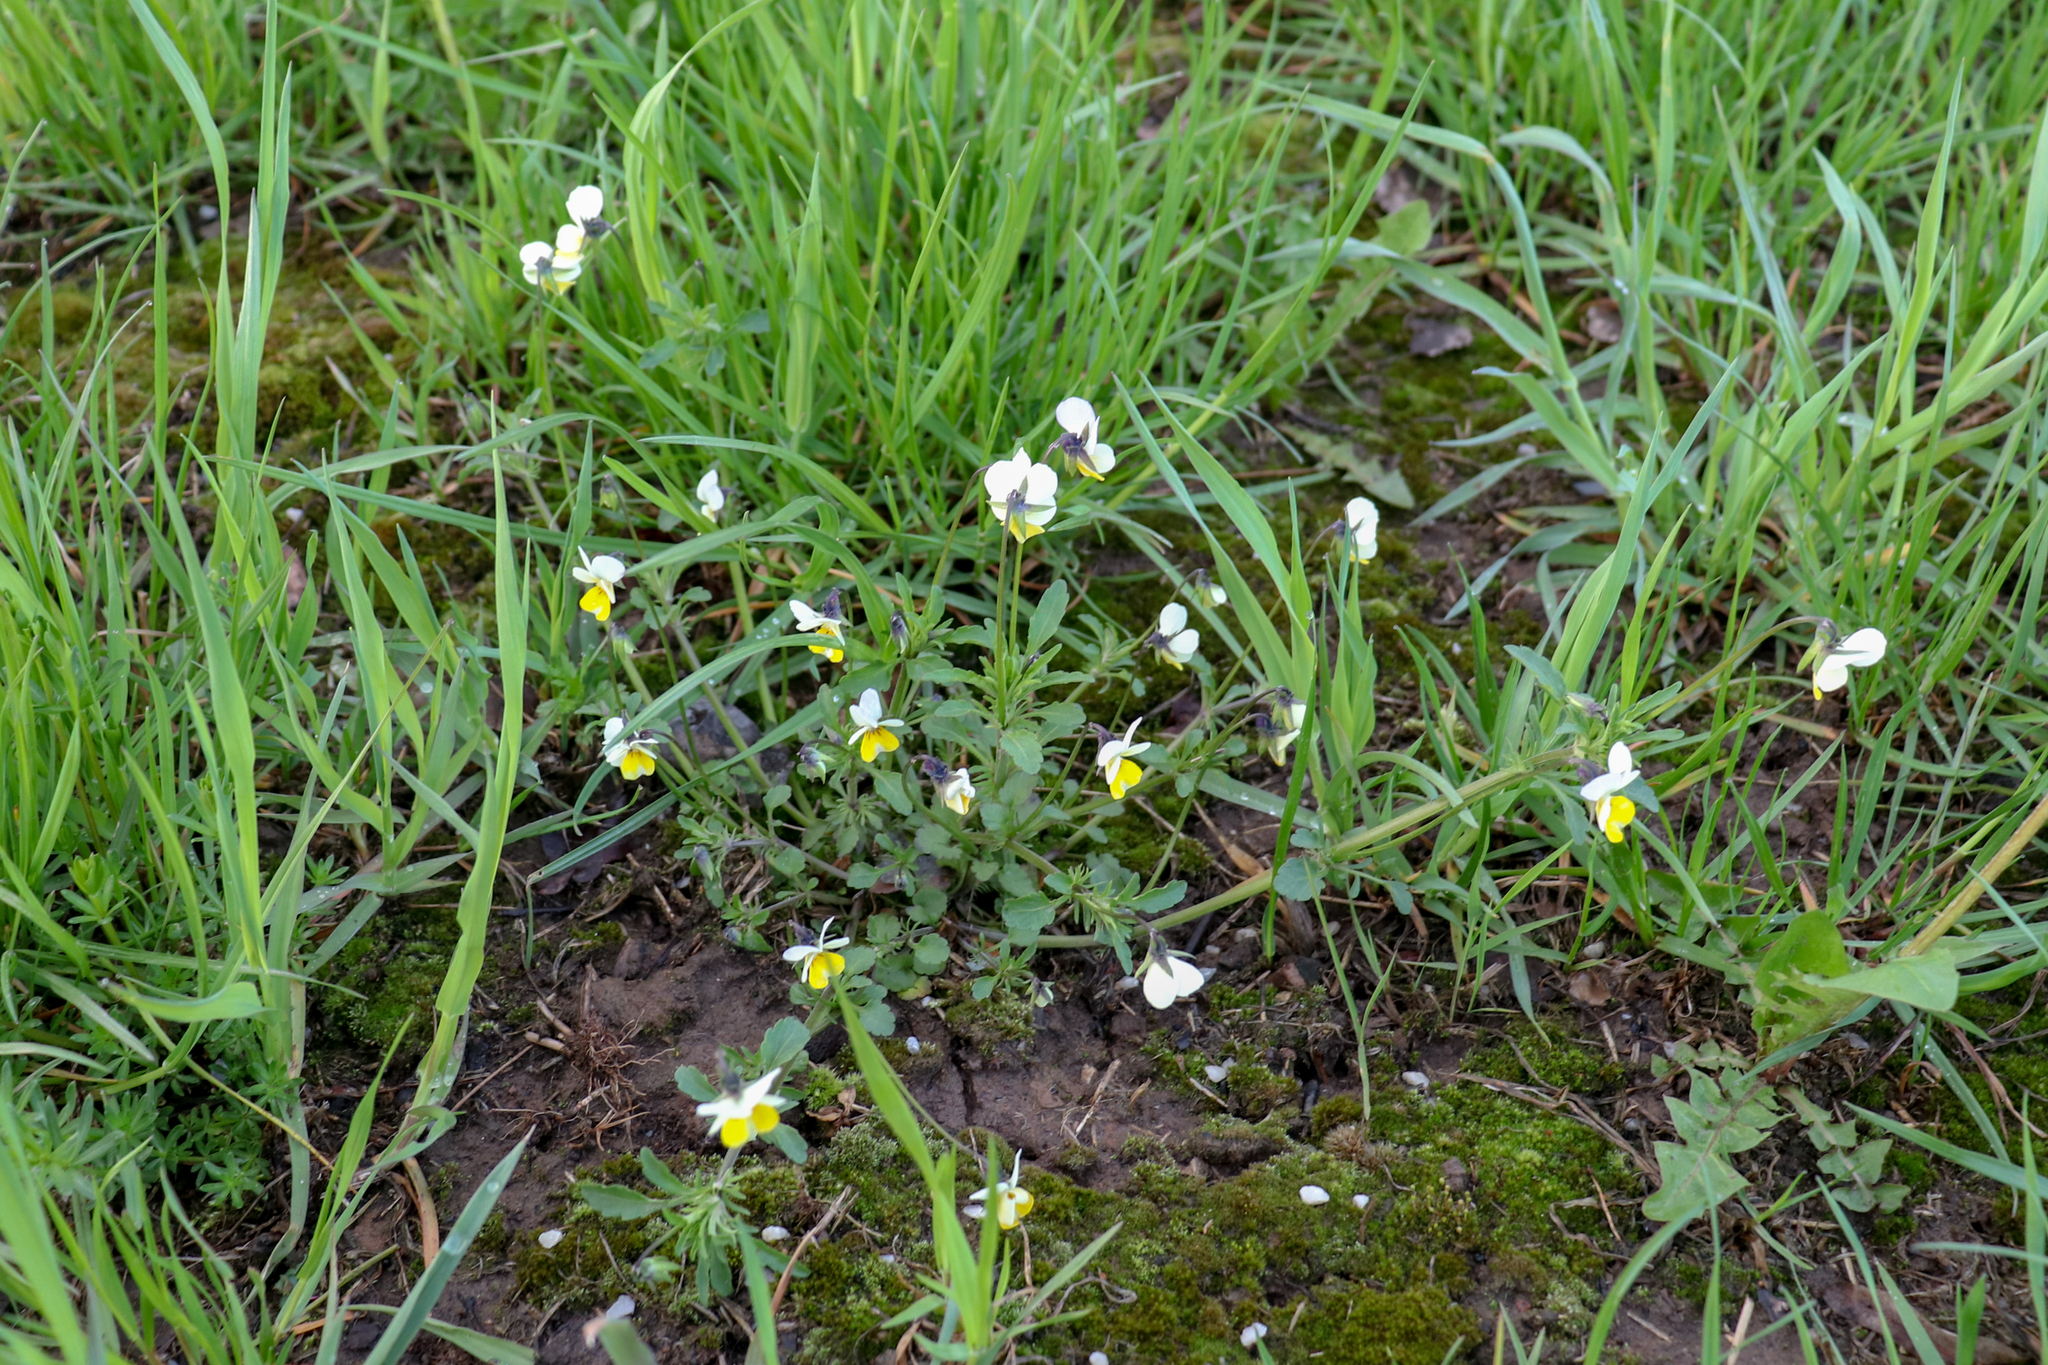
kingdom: Plantae
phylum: Tracheophyta
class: Magnoliopsida
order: Malpighiales
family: Violaceae
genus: Viola
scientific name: Viola arvensis
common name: Field pansy
